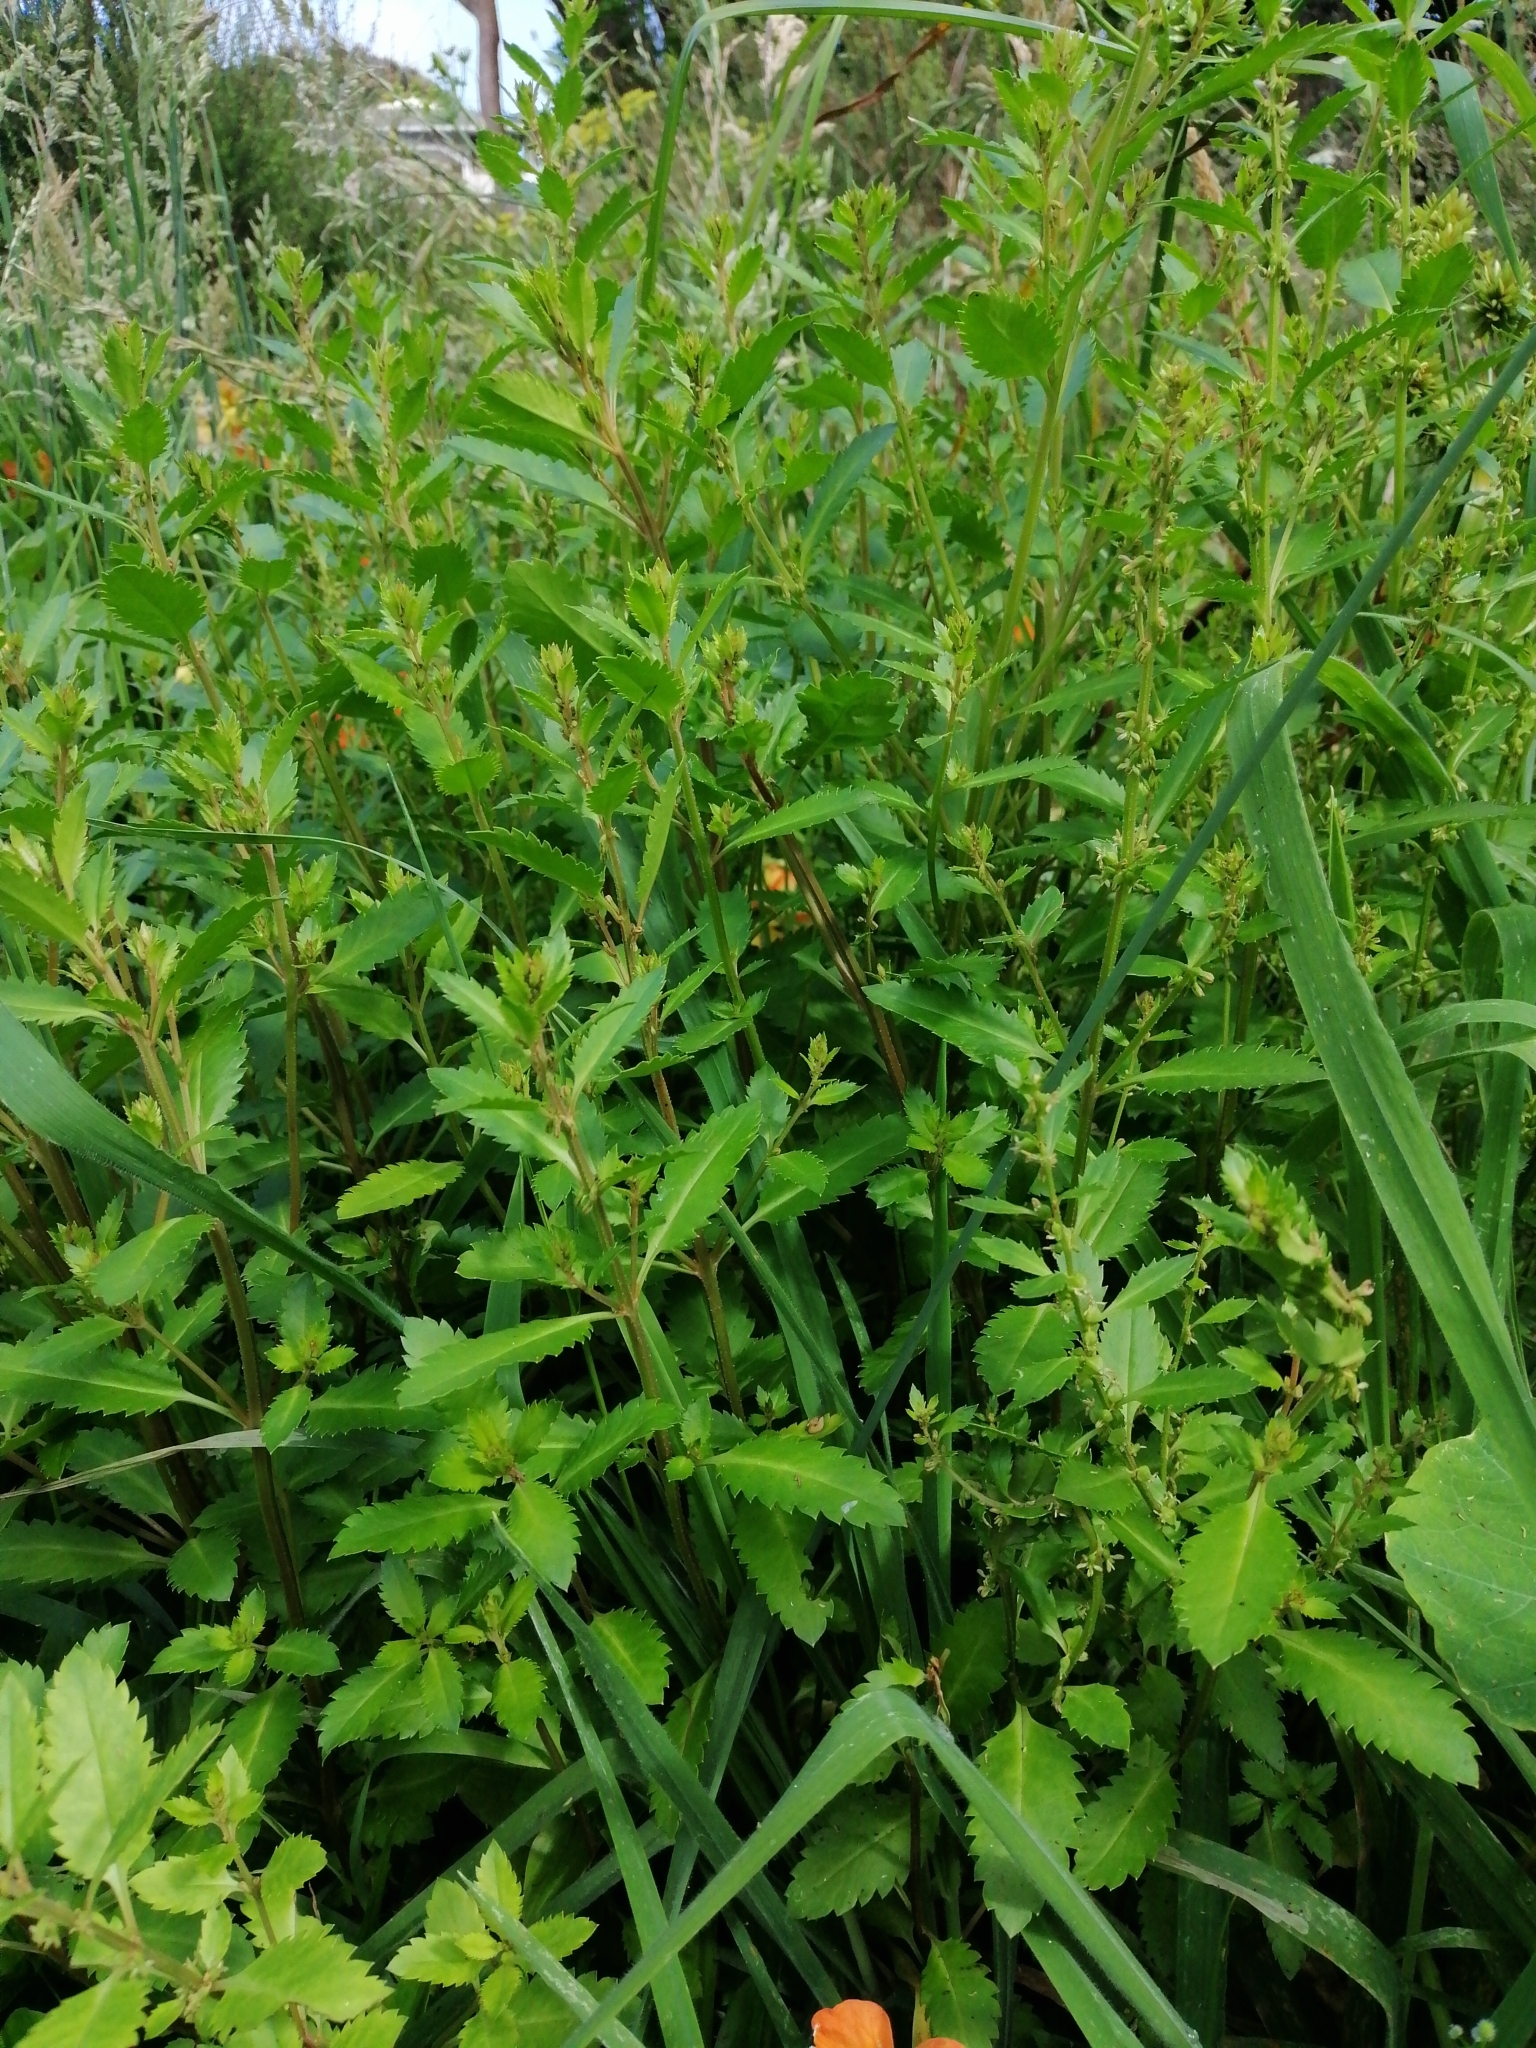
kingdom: Plantae
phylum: Tracheophyta
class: Magnoliopsida
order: Saxifragales
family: Haloragaceae
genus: Haloragis
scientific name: Haloragis erecta
